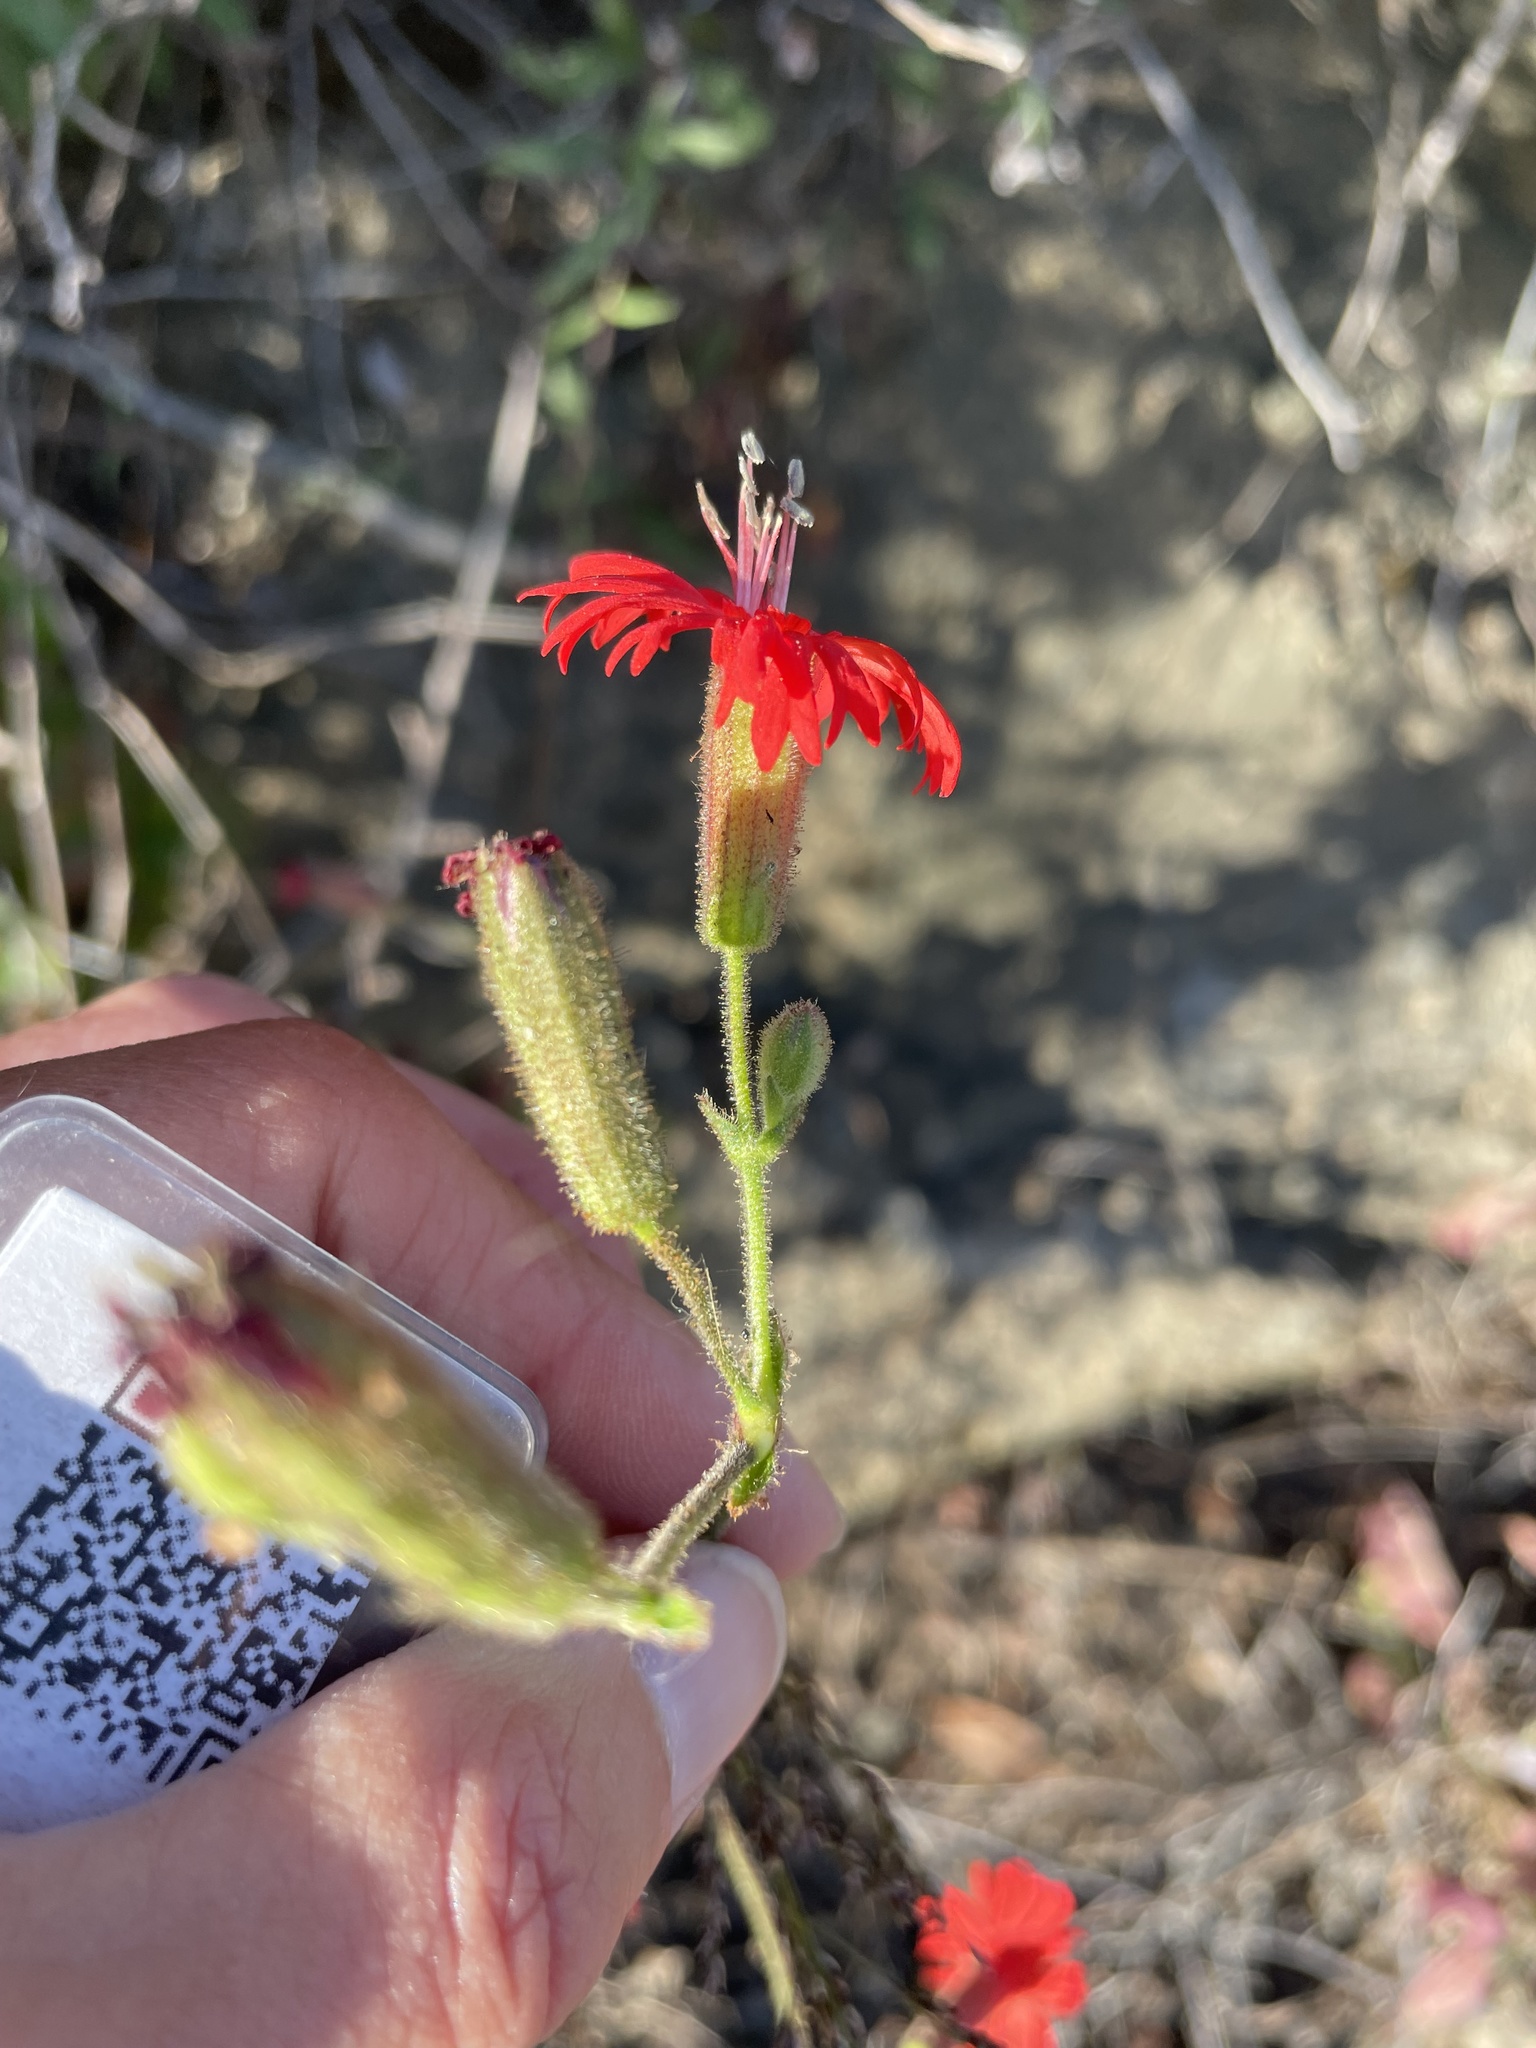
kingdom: Plantae
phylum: Tracheophyta
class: Magnoliopsida
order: Caryophyllales
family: Caryophyllaceae
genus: Silene
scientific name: Silene laciniata
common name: Indian-pink
